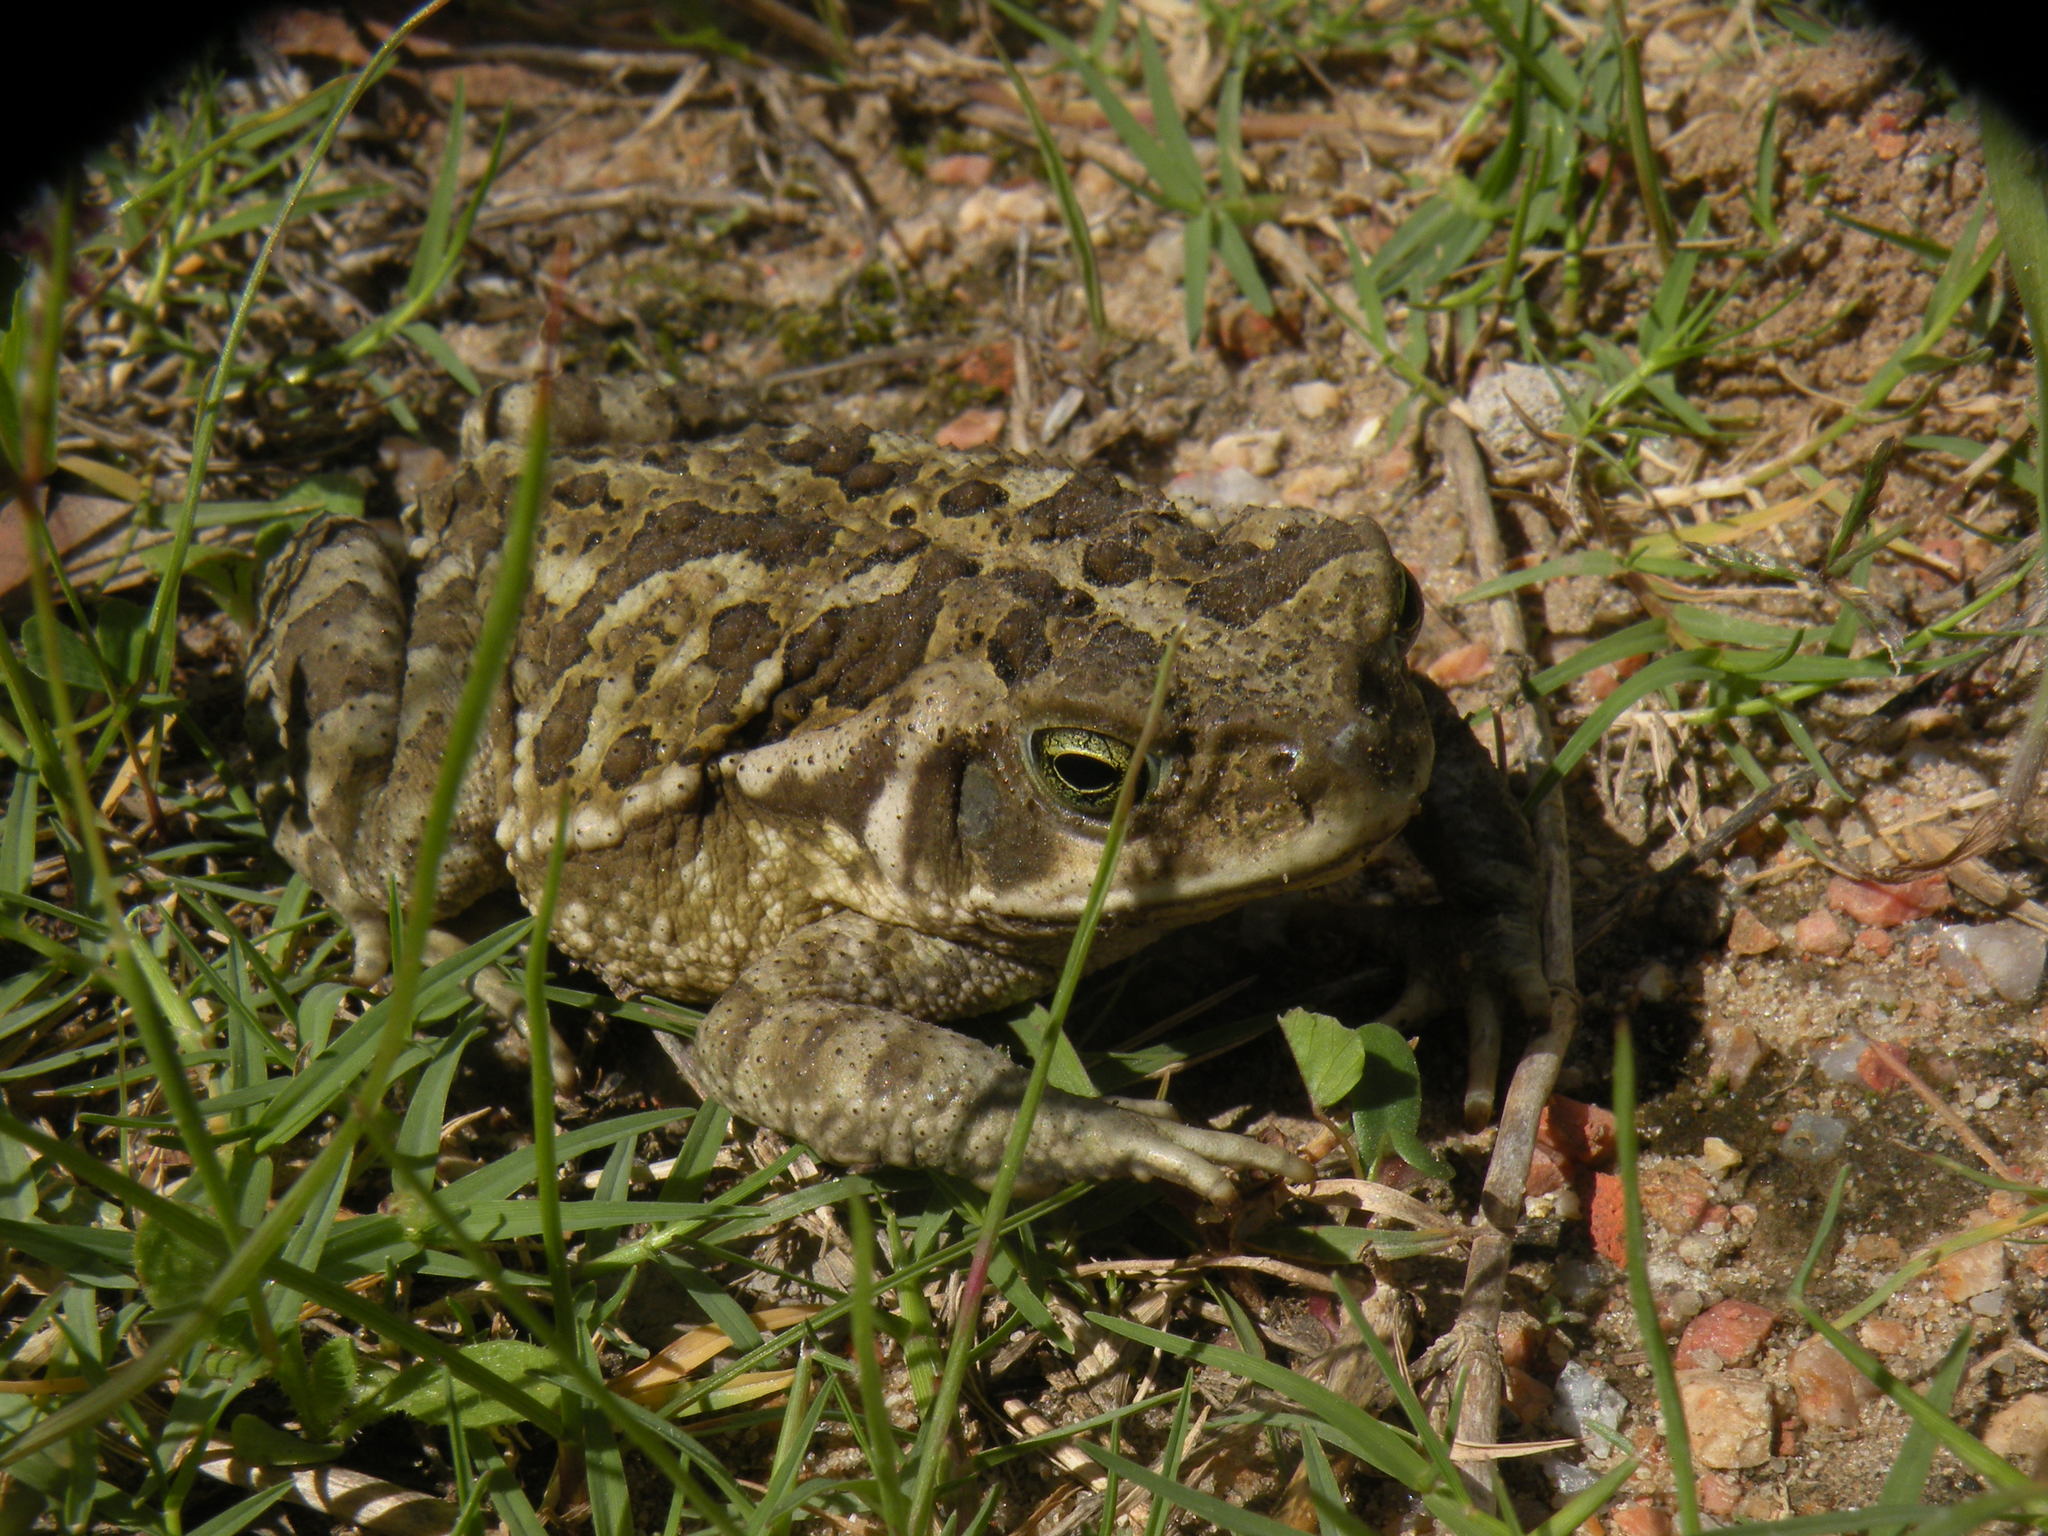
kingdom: Animalia
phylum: Chordata
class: Amphibia
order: Anura
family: Bufonidae
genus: Rhinella
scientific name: Rhinella arenarum
